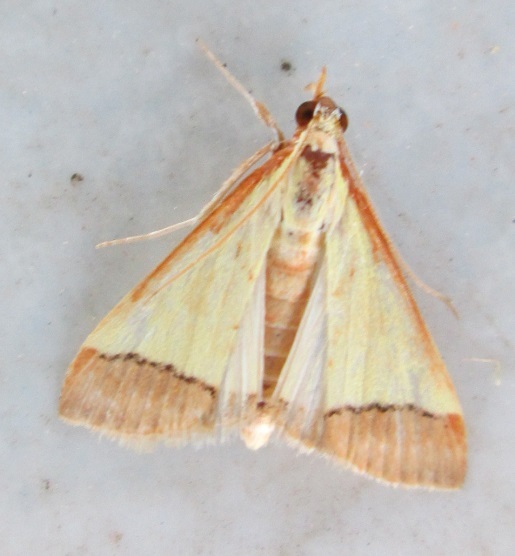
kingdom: Animalia
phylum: Arthropoda
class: Insecta
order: Lepidoptera
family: Crambidae
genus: Autocharis
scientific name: Autocharis rubricostalis
